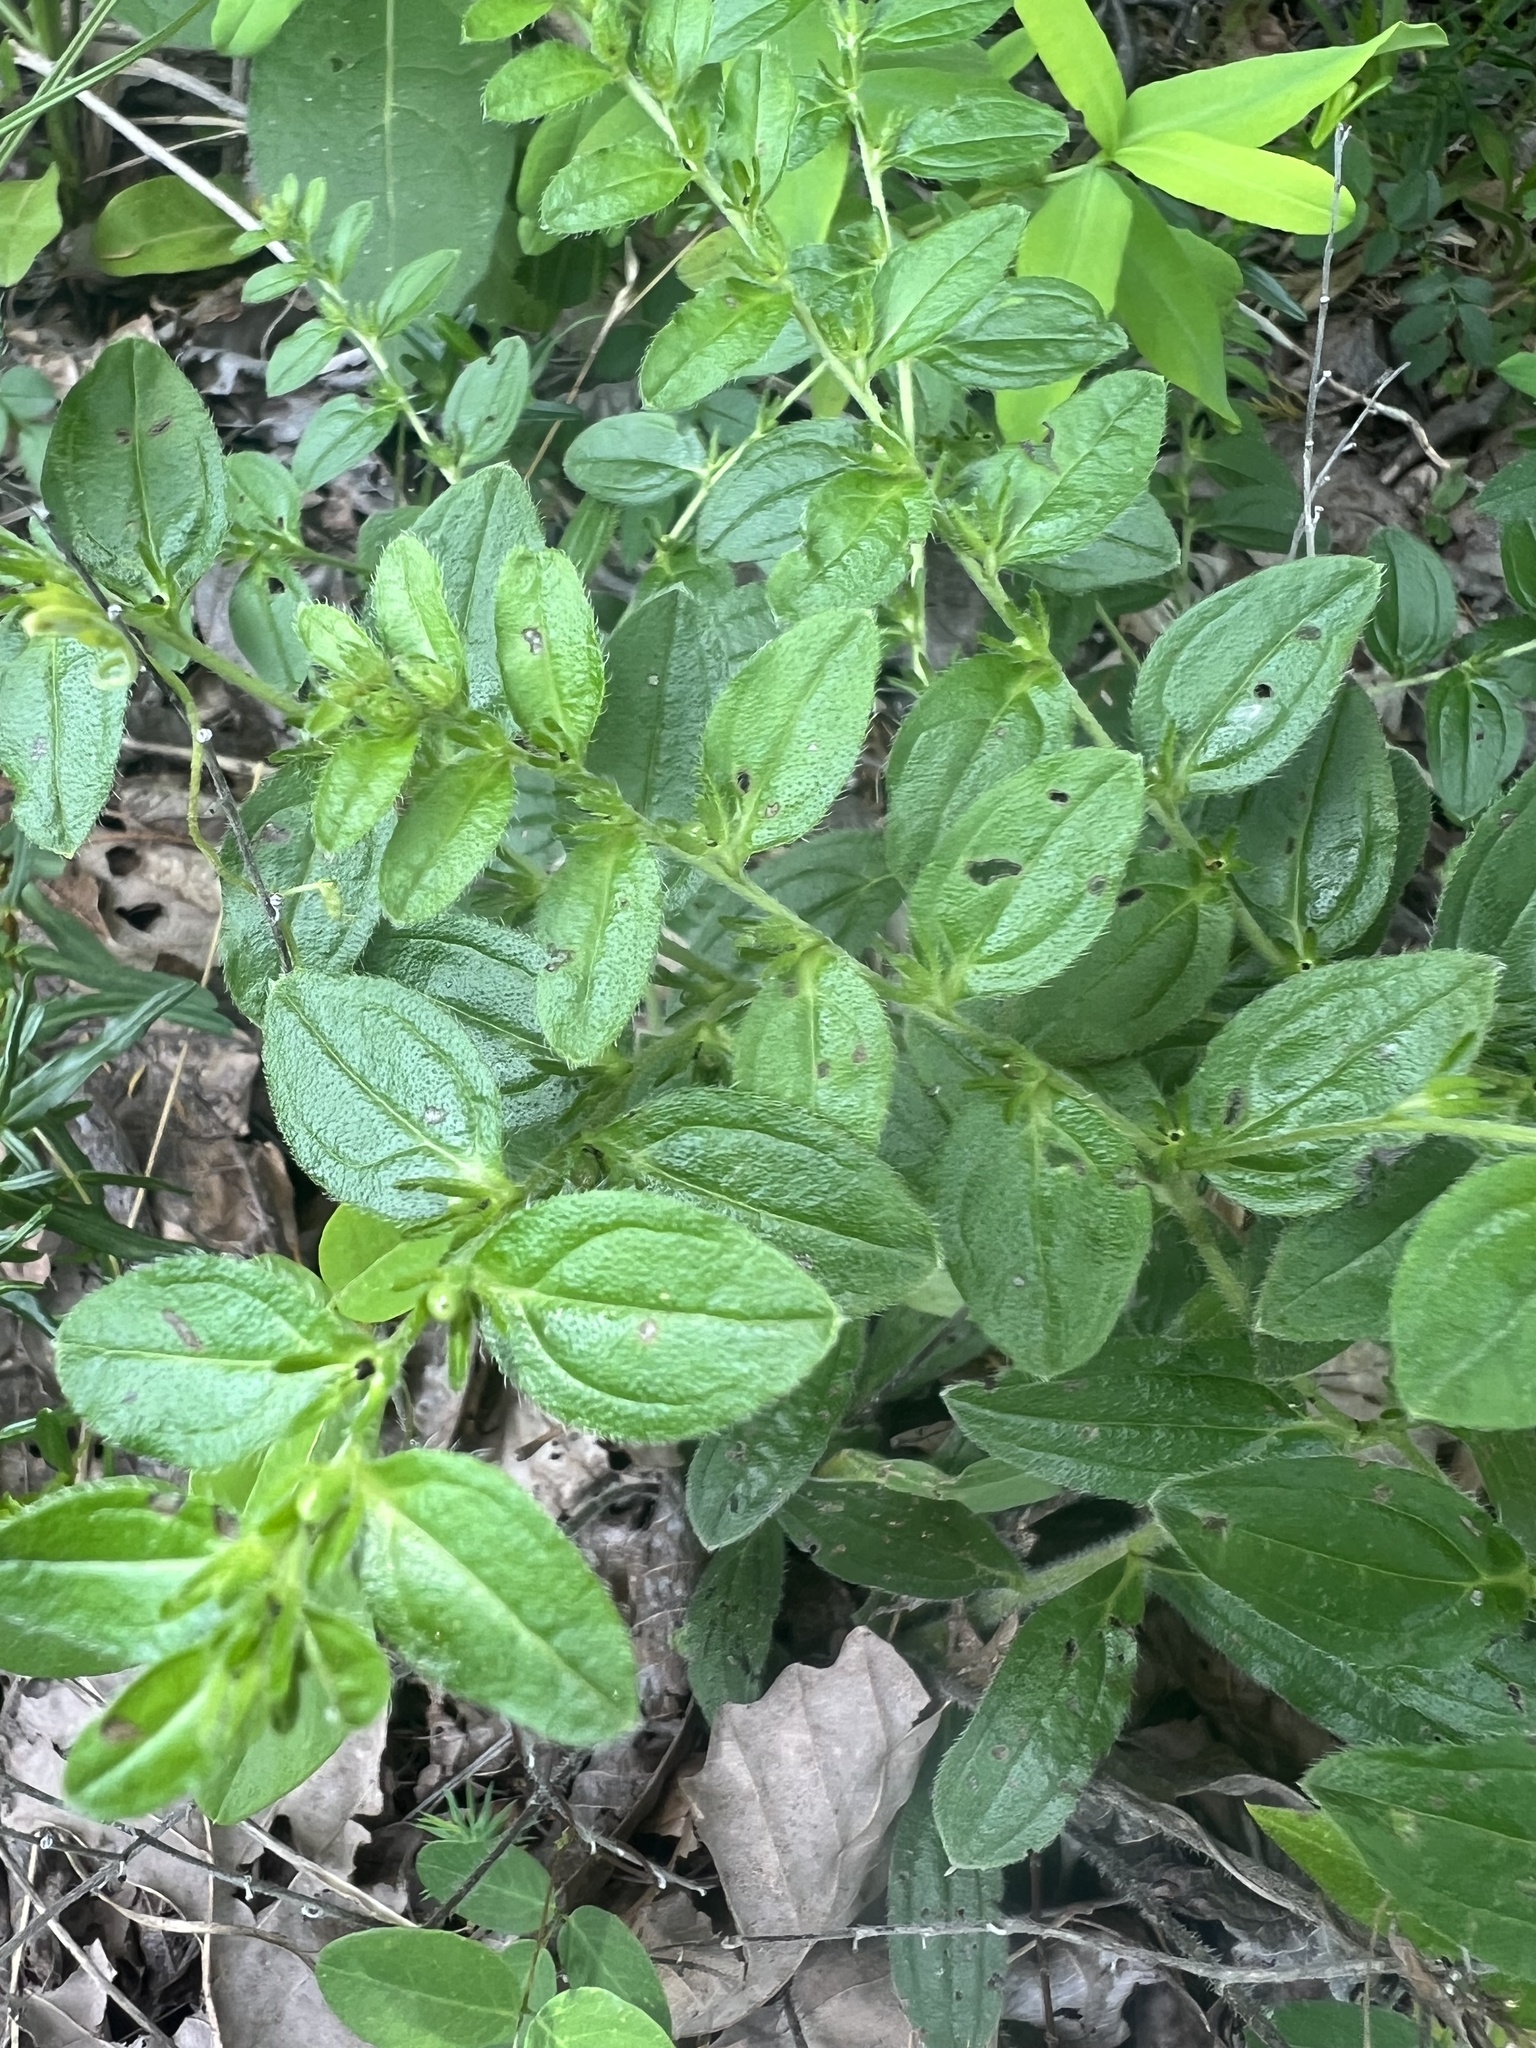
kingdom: Plantae
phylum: Tracheophyta
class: Magnoliopsida
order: Boraginales
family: Boraginaceae
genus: Lithospermum
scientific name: Lithospermum tuberosum
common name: Southern stoneseed
